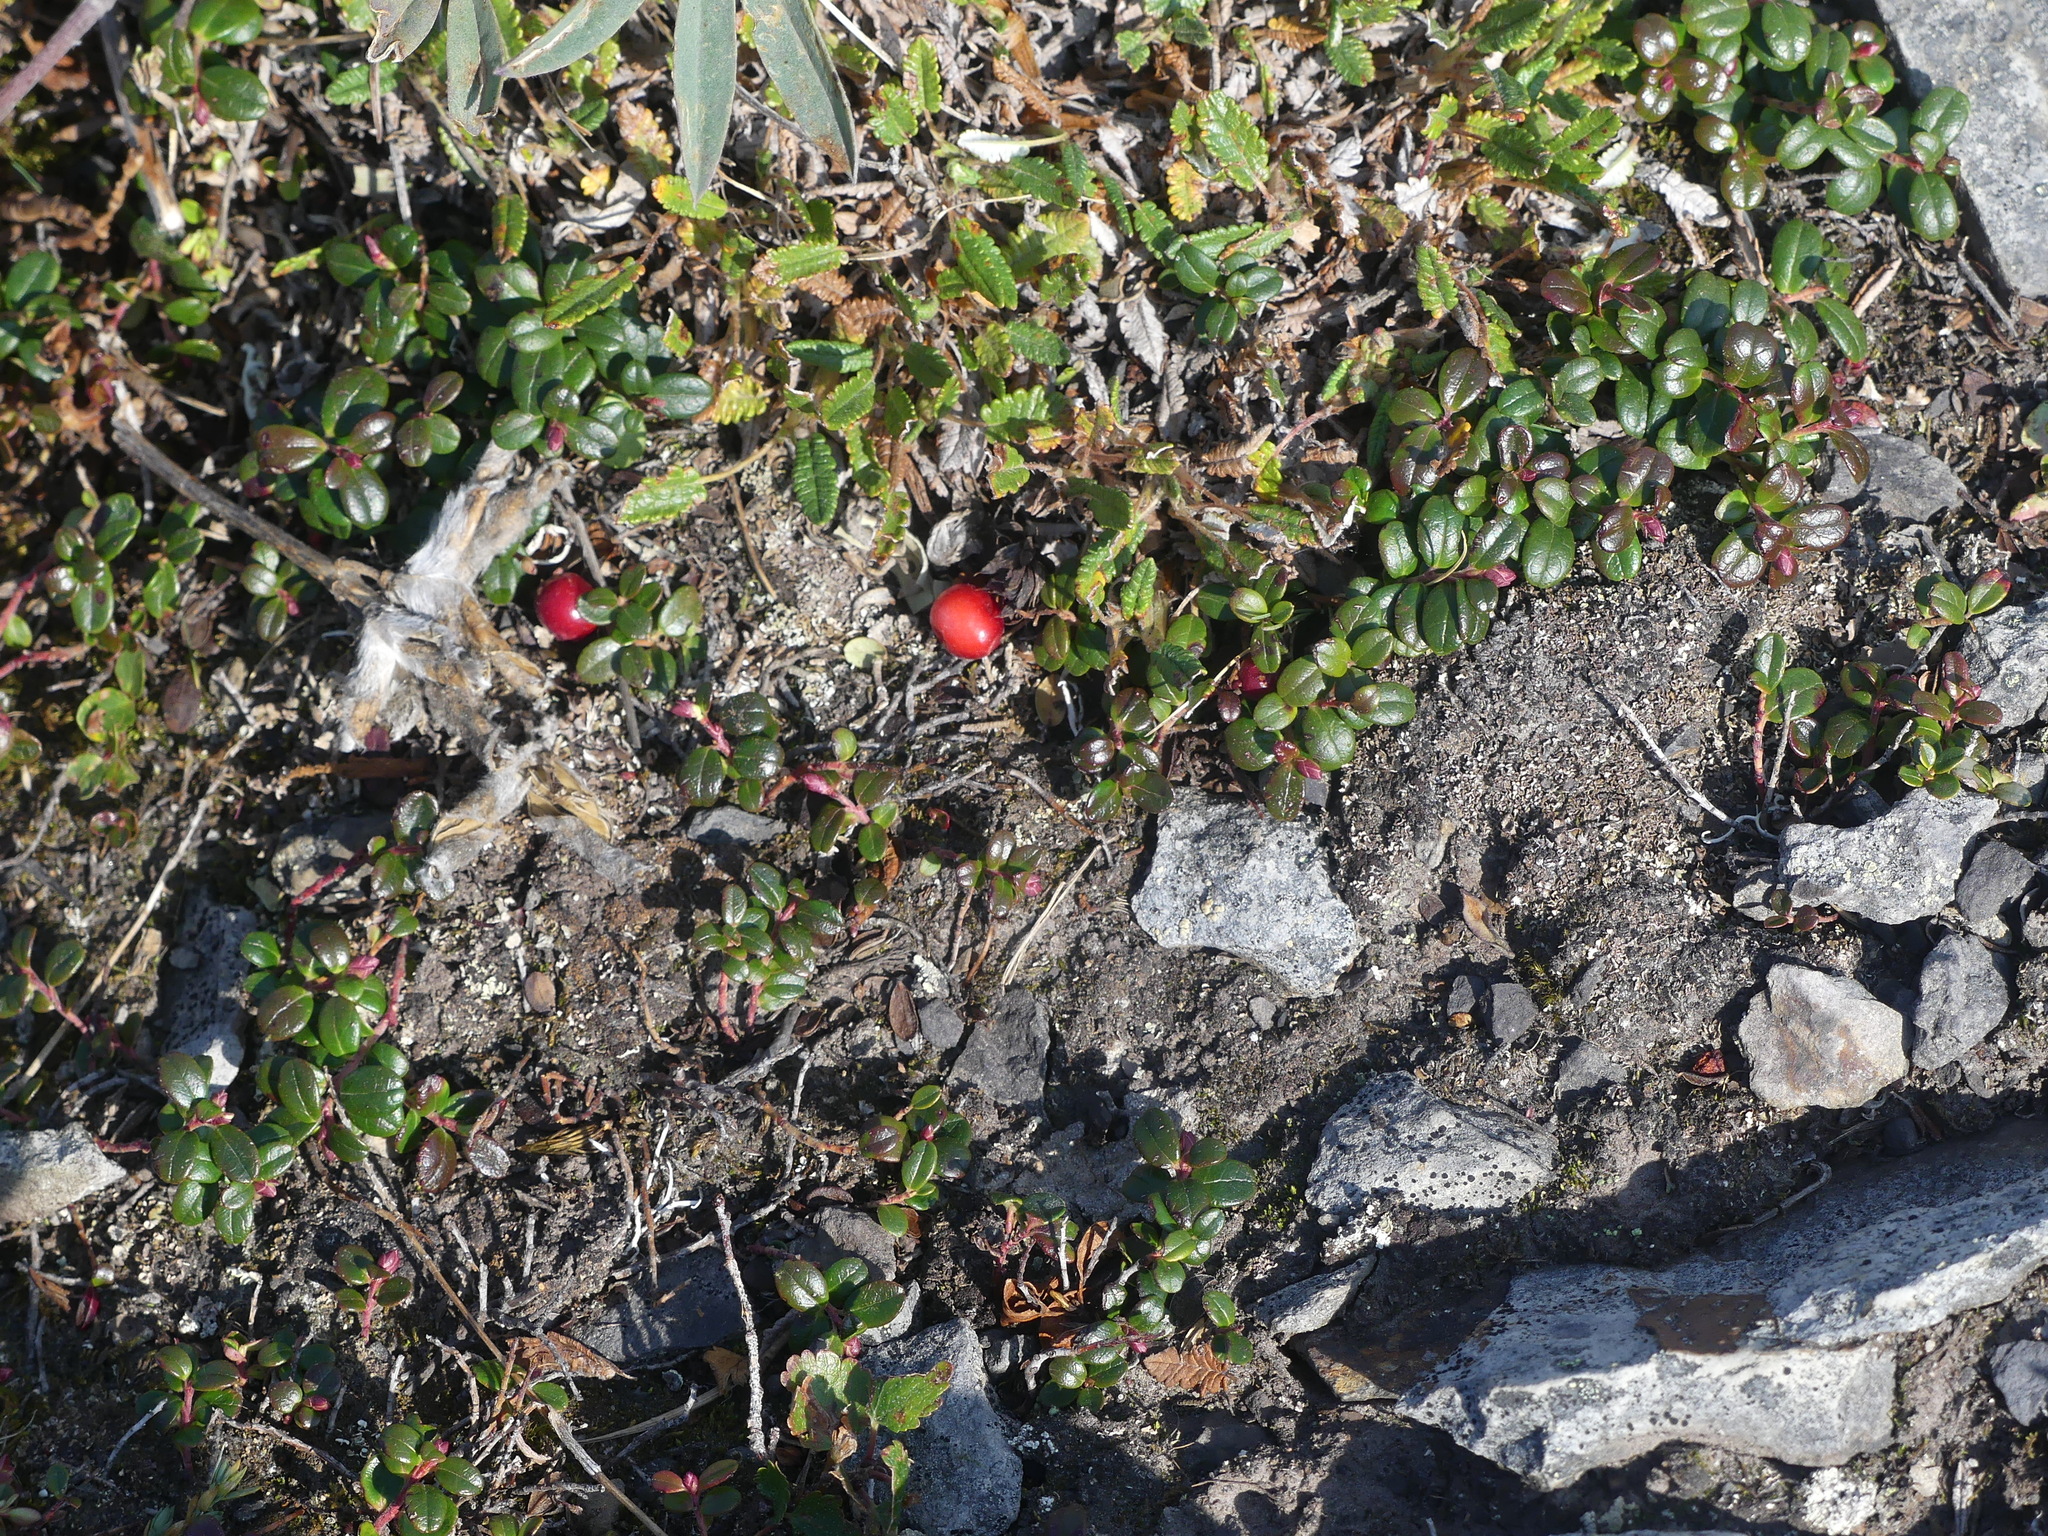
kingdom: Plantae
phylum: Tracheophyta
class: Magnoliopsida
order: Ericales
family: Ericaceae
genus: Vaccinium
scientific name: Vaccinium vitis-idaea
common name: Cowberry
